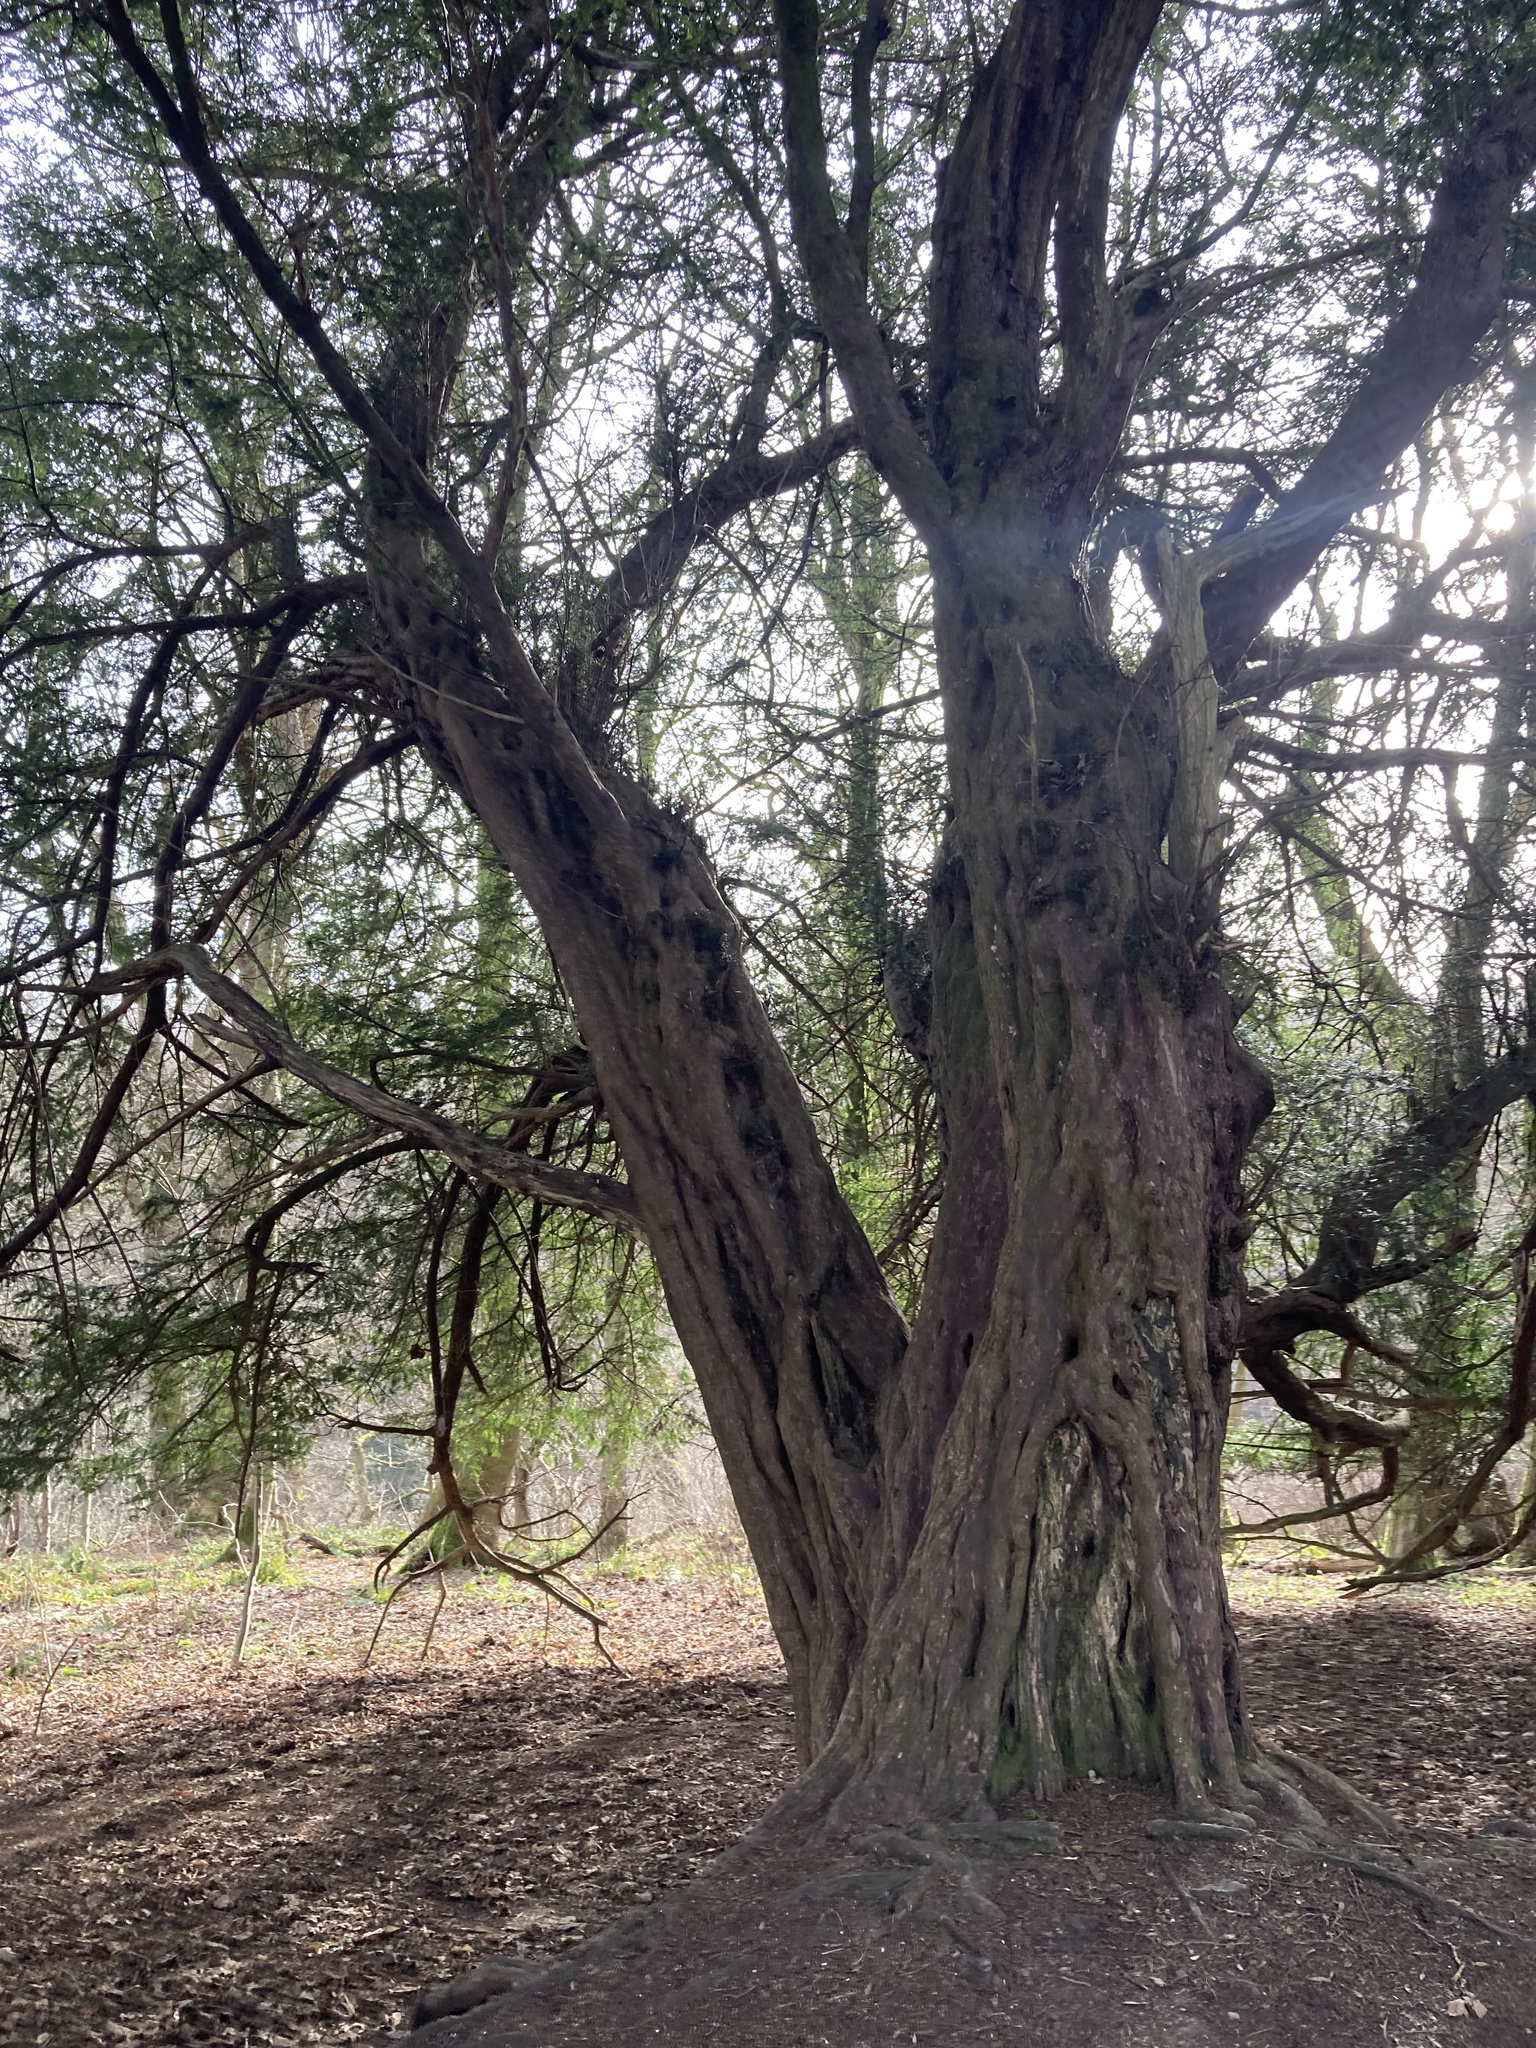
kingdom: Plantae
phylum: Tracheophyta
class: Pinopsida
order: Pinales
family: Taxaceae
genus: Taxus
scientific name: Taxus baccata
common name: Yew
